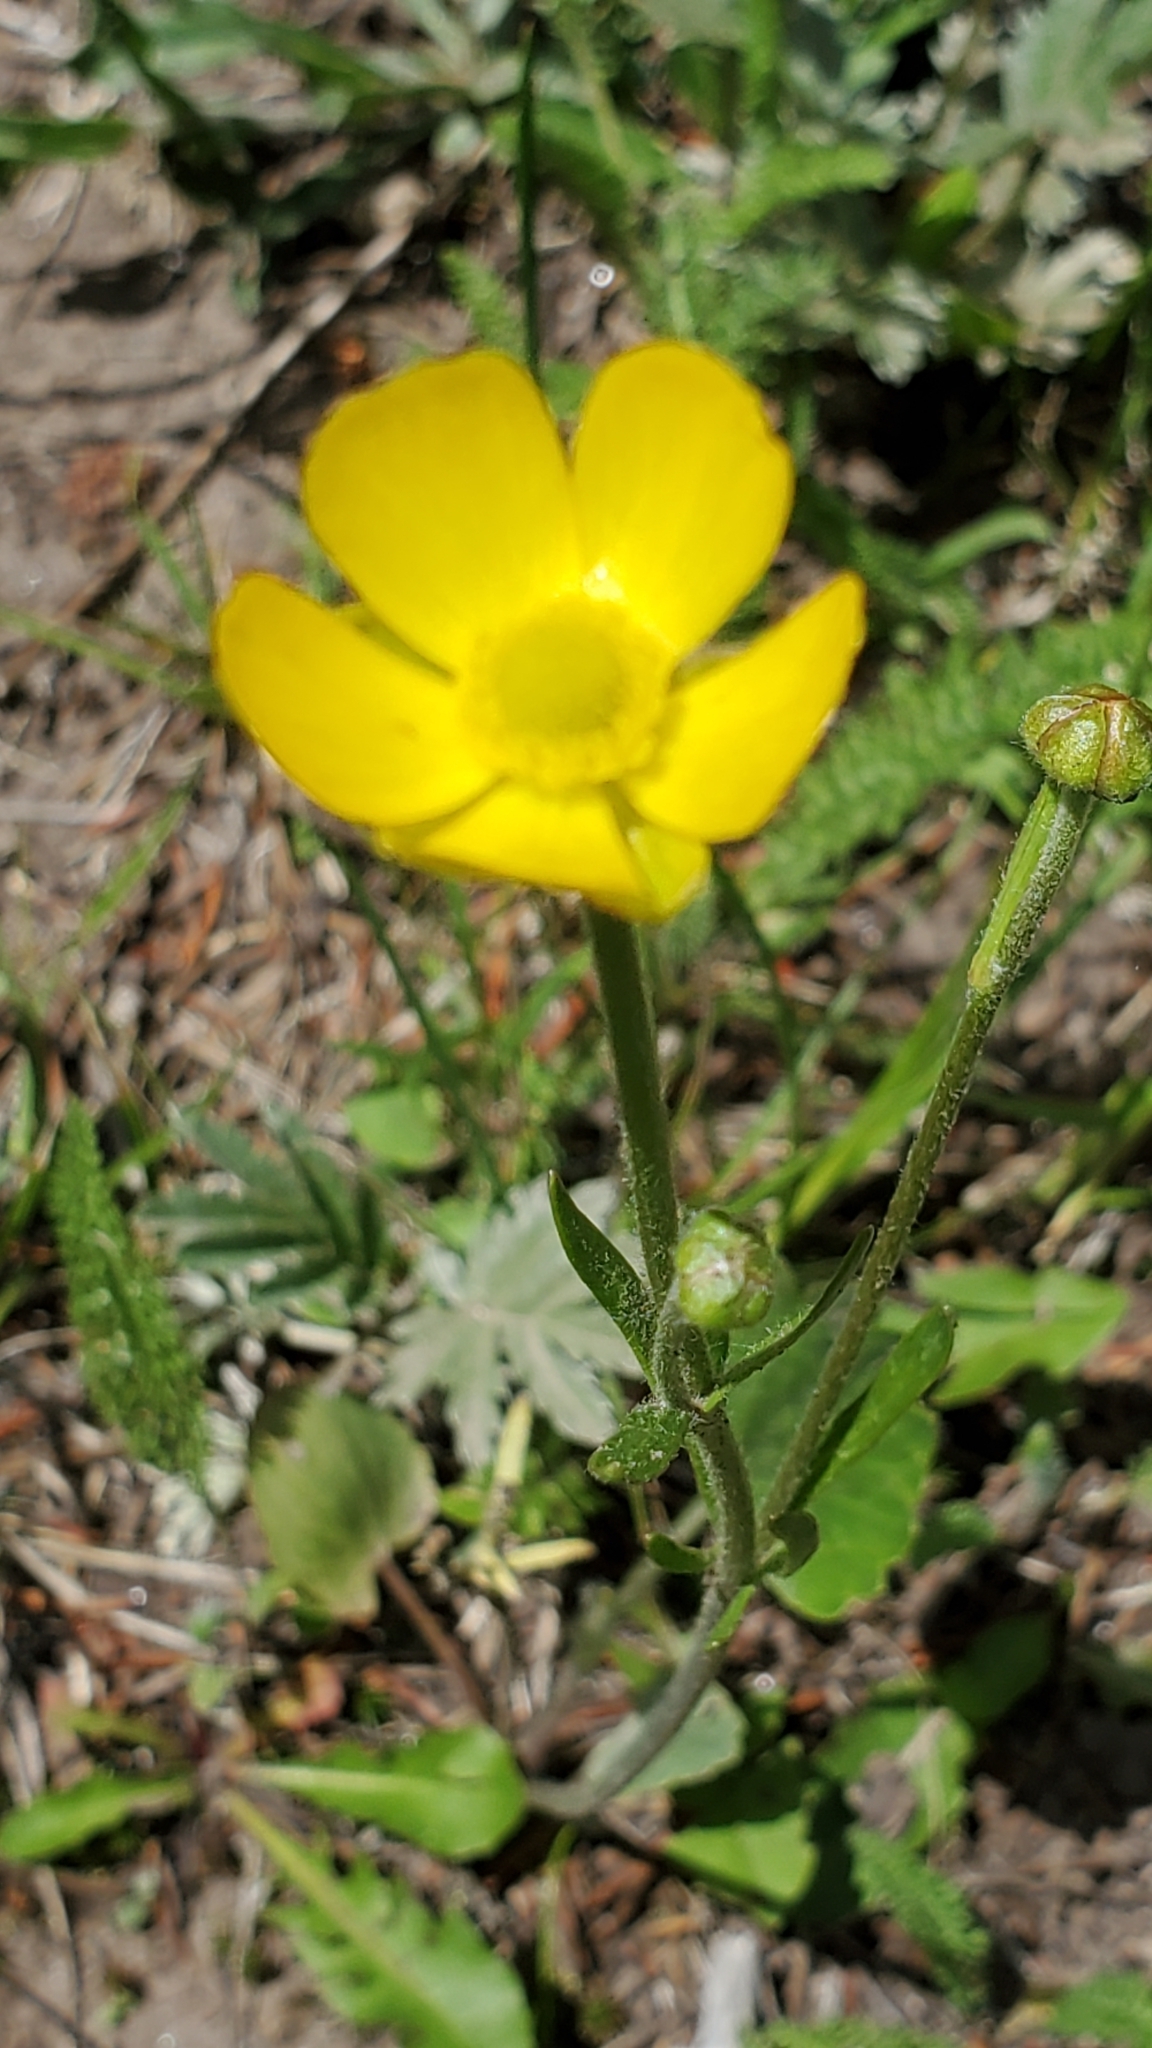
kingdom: Plantae
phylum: Tracheophyta
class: Magnoliopsida
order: Ranunculales
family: Ranunculaceae
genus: Ranunculus
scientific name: Ranunculus cardiophyllus
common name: Heart-leaved buttercup
